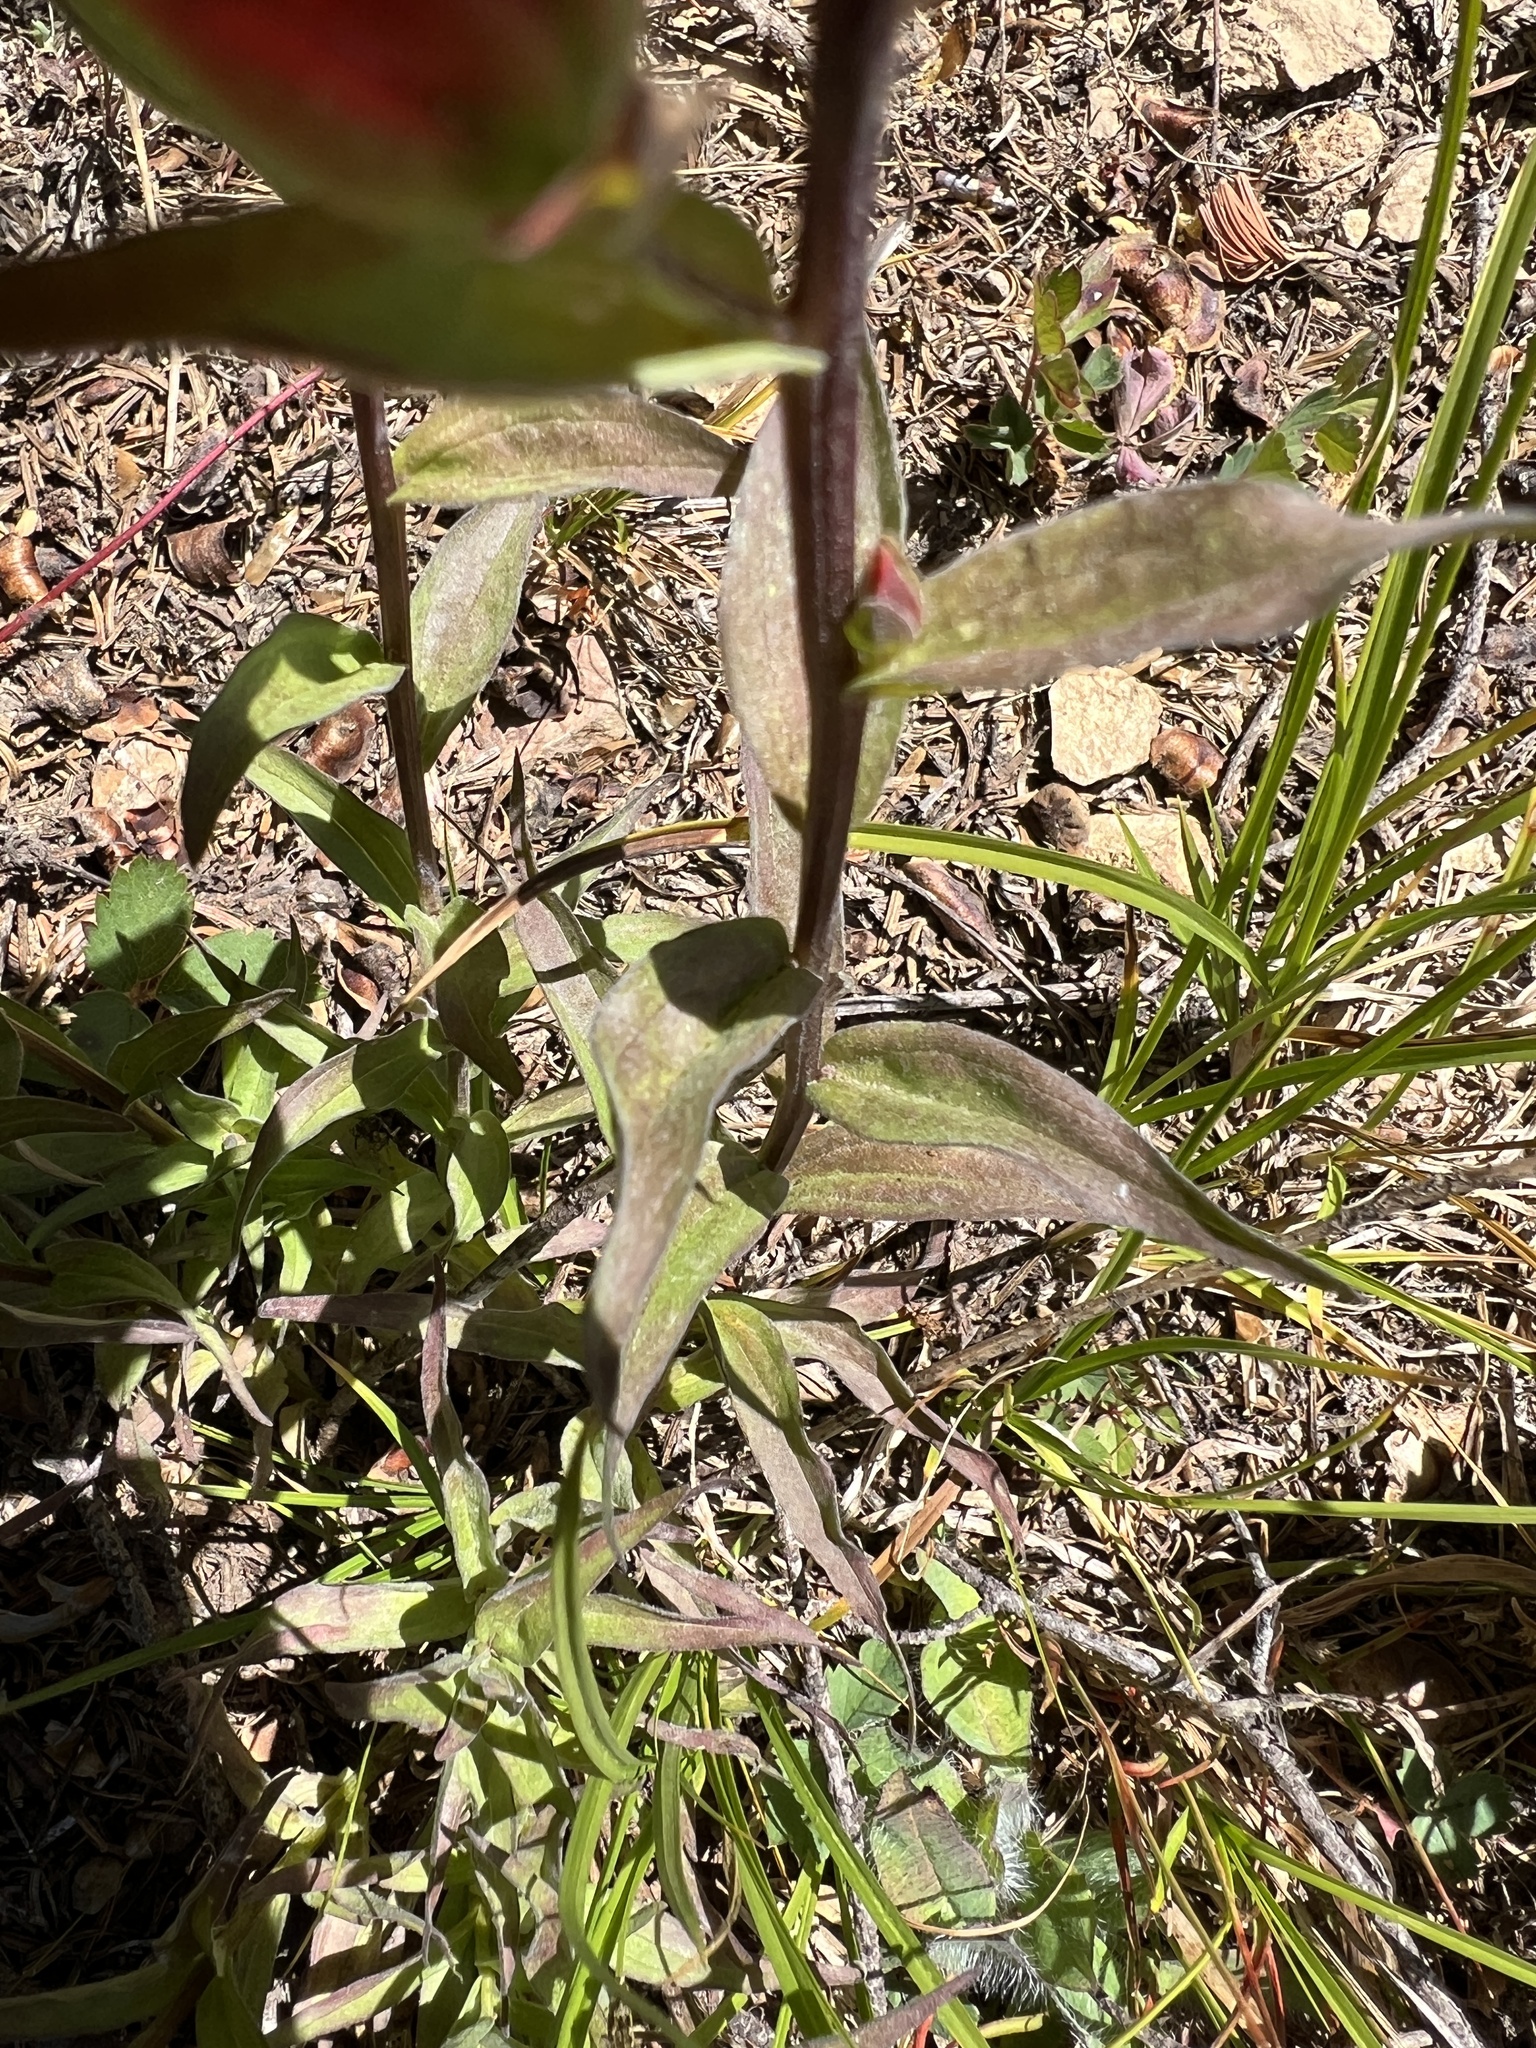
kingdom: Plantae
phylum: Tracheophyta
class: Magnoliopsida
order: Lamiales
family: Orobanchaceae
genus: Castilleja
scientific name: Castilleja miniata
